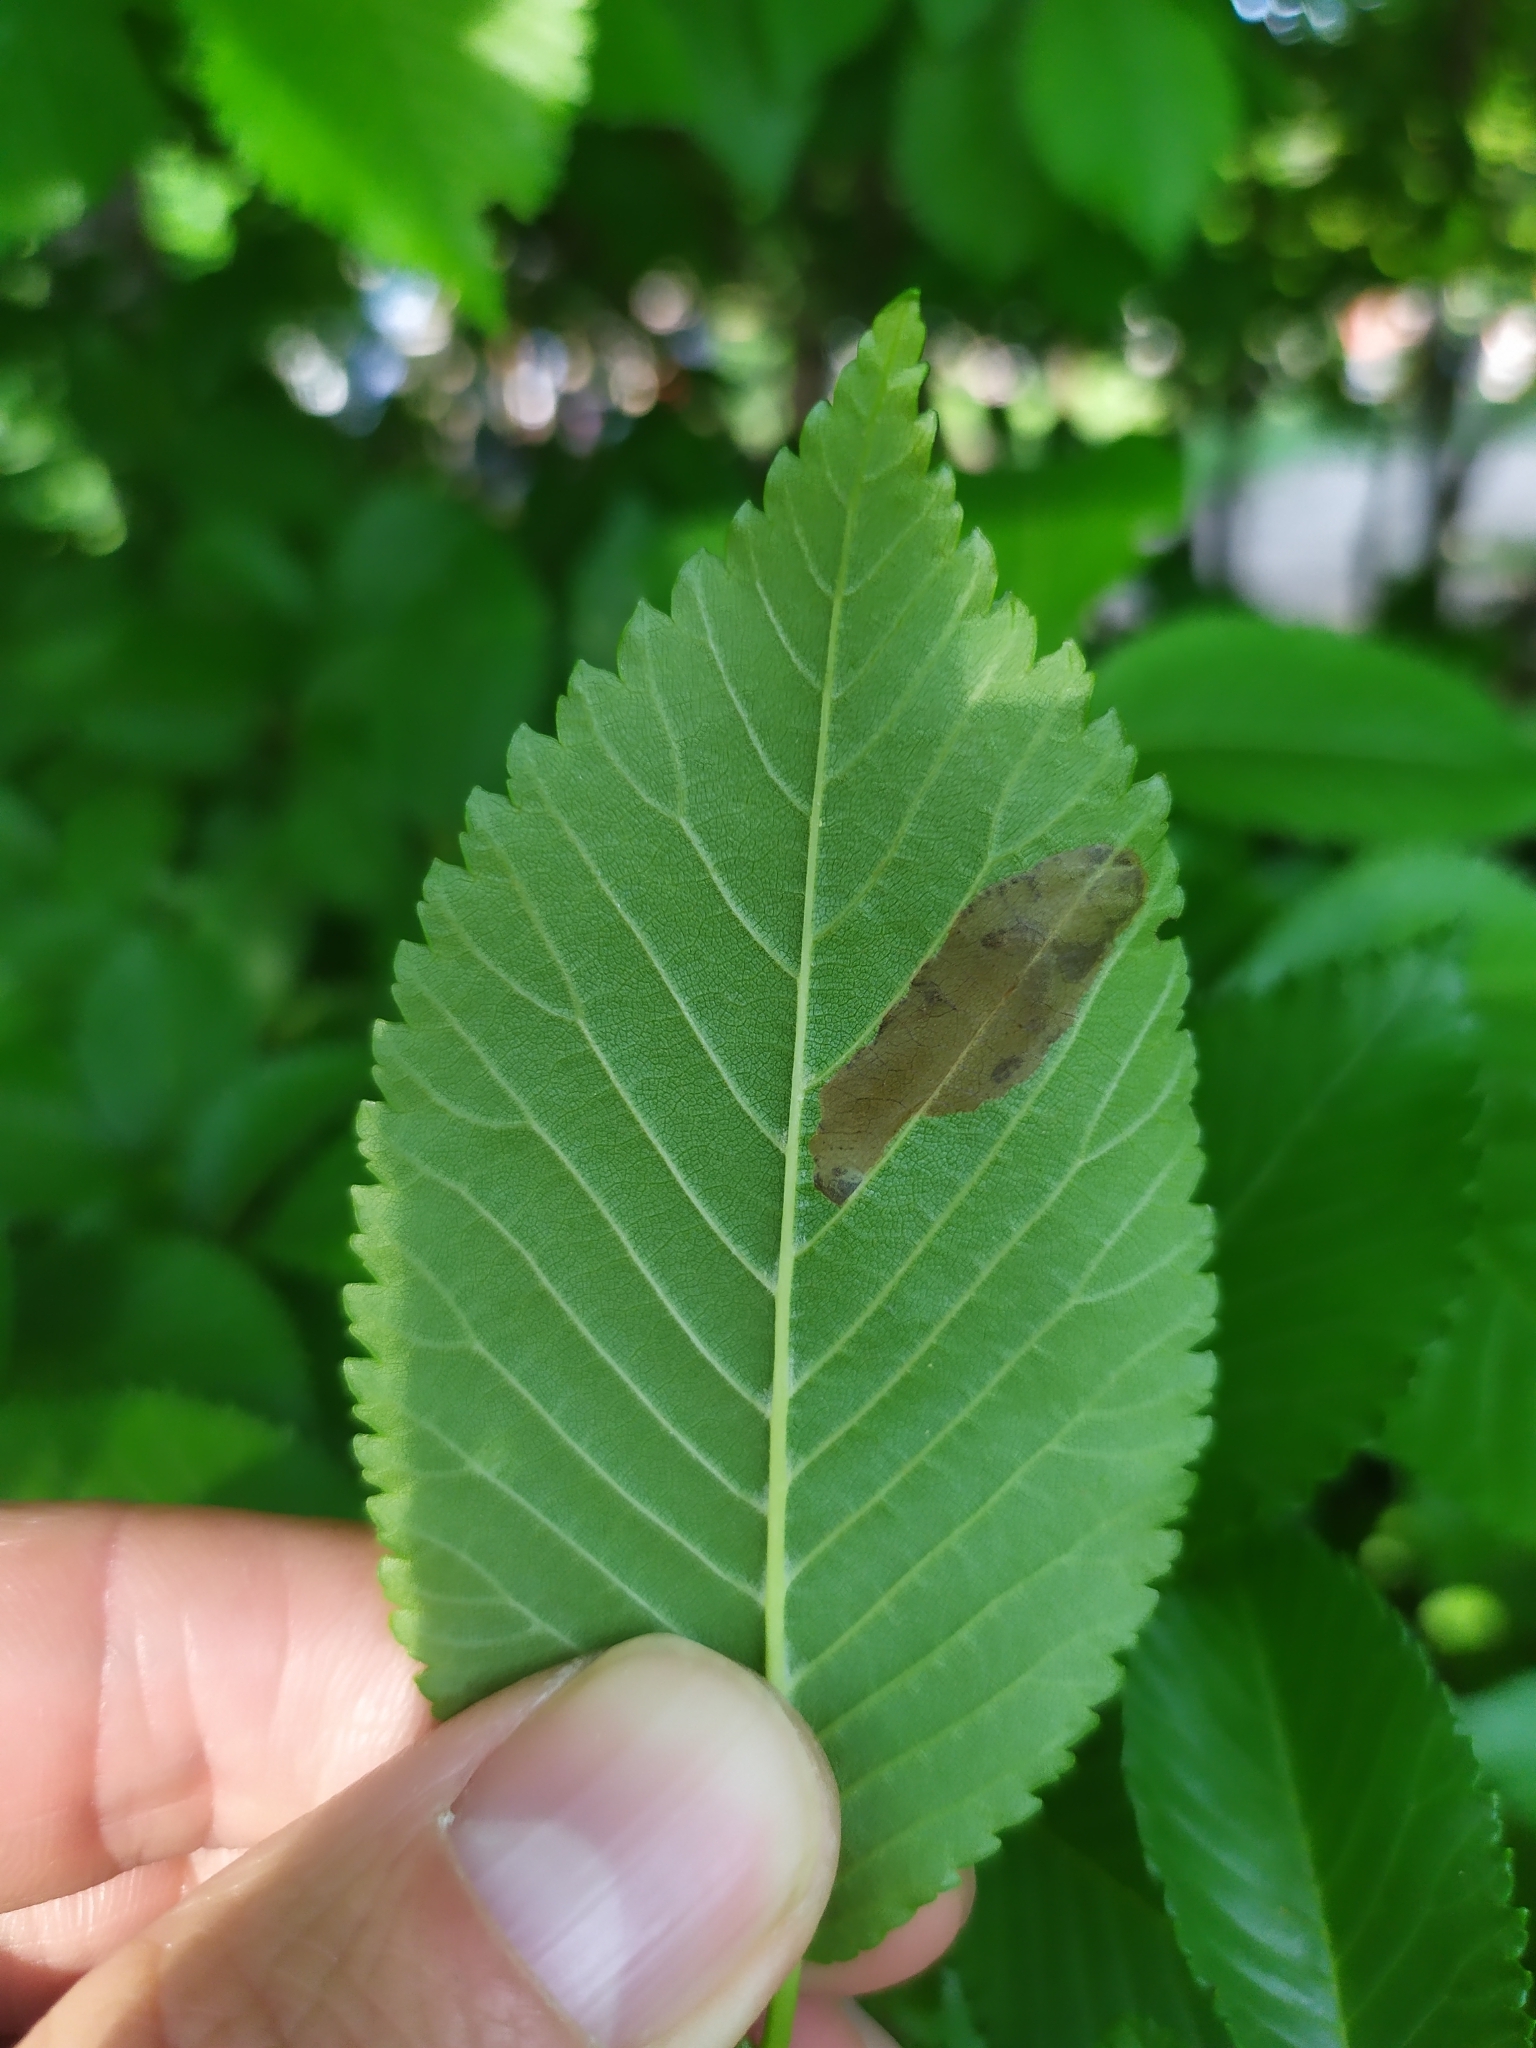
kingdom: Animalia
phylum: Arthropoda
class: Insecta
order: Coleoptera
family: Buprestidae
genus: Trachys
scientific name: Trachys minutus
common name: Metallic wood-boring beetle
